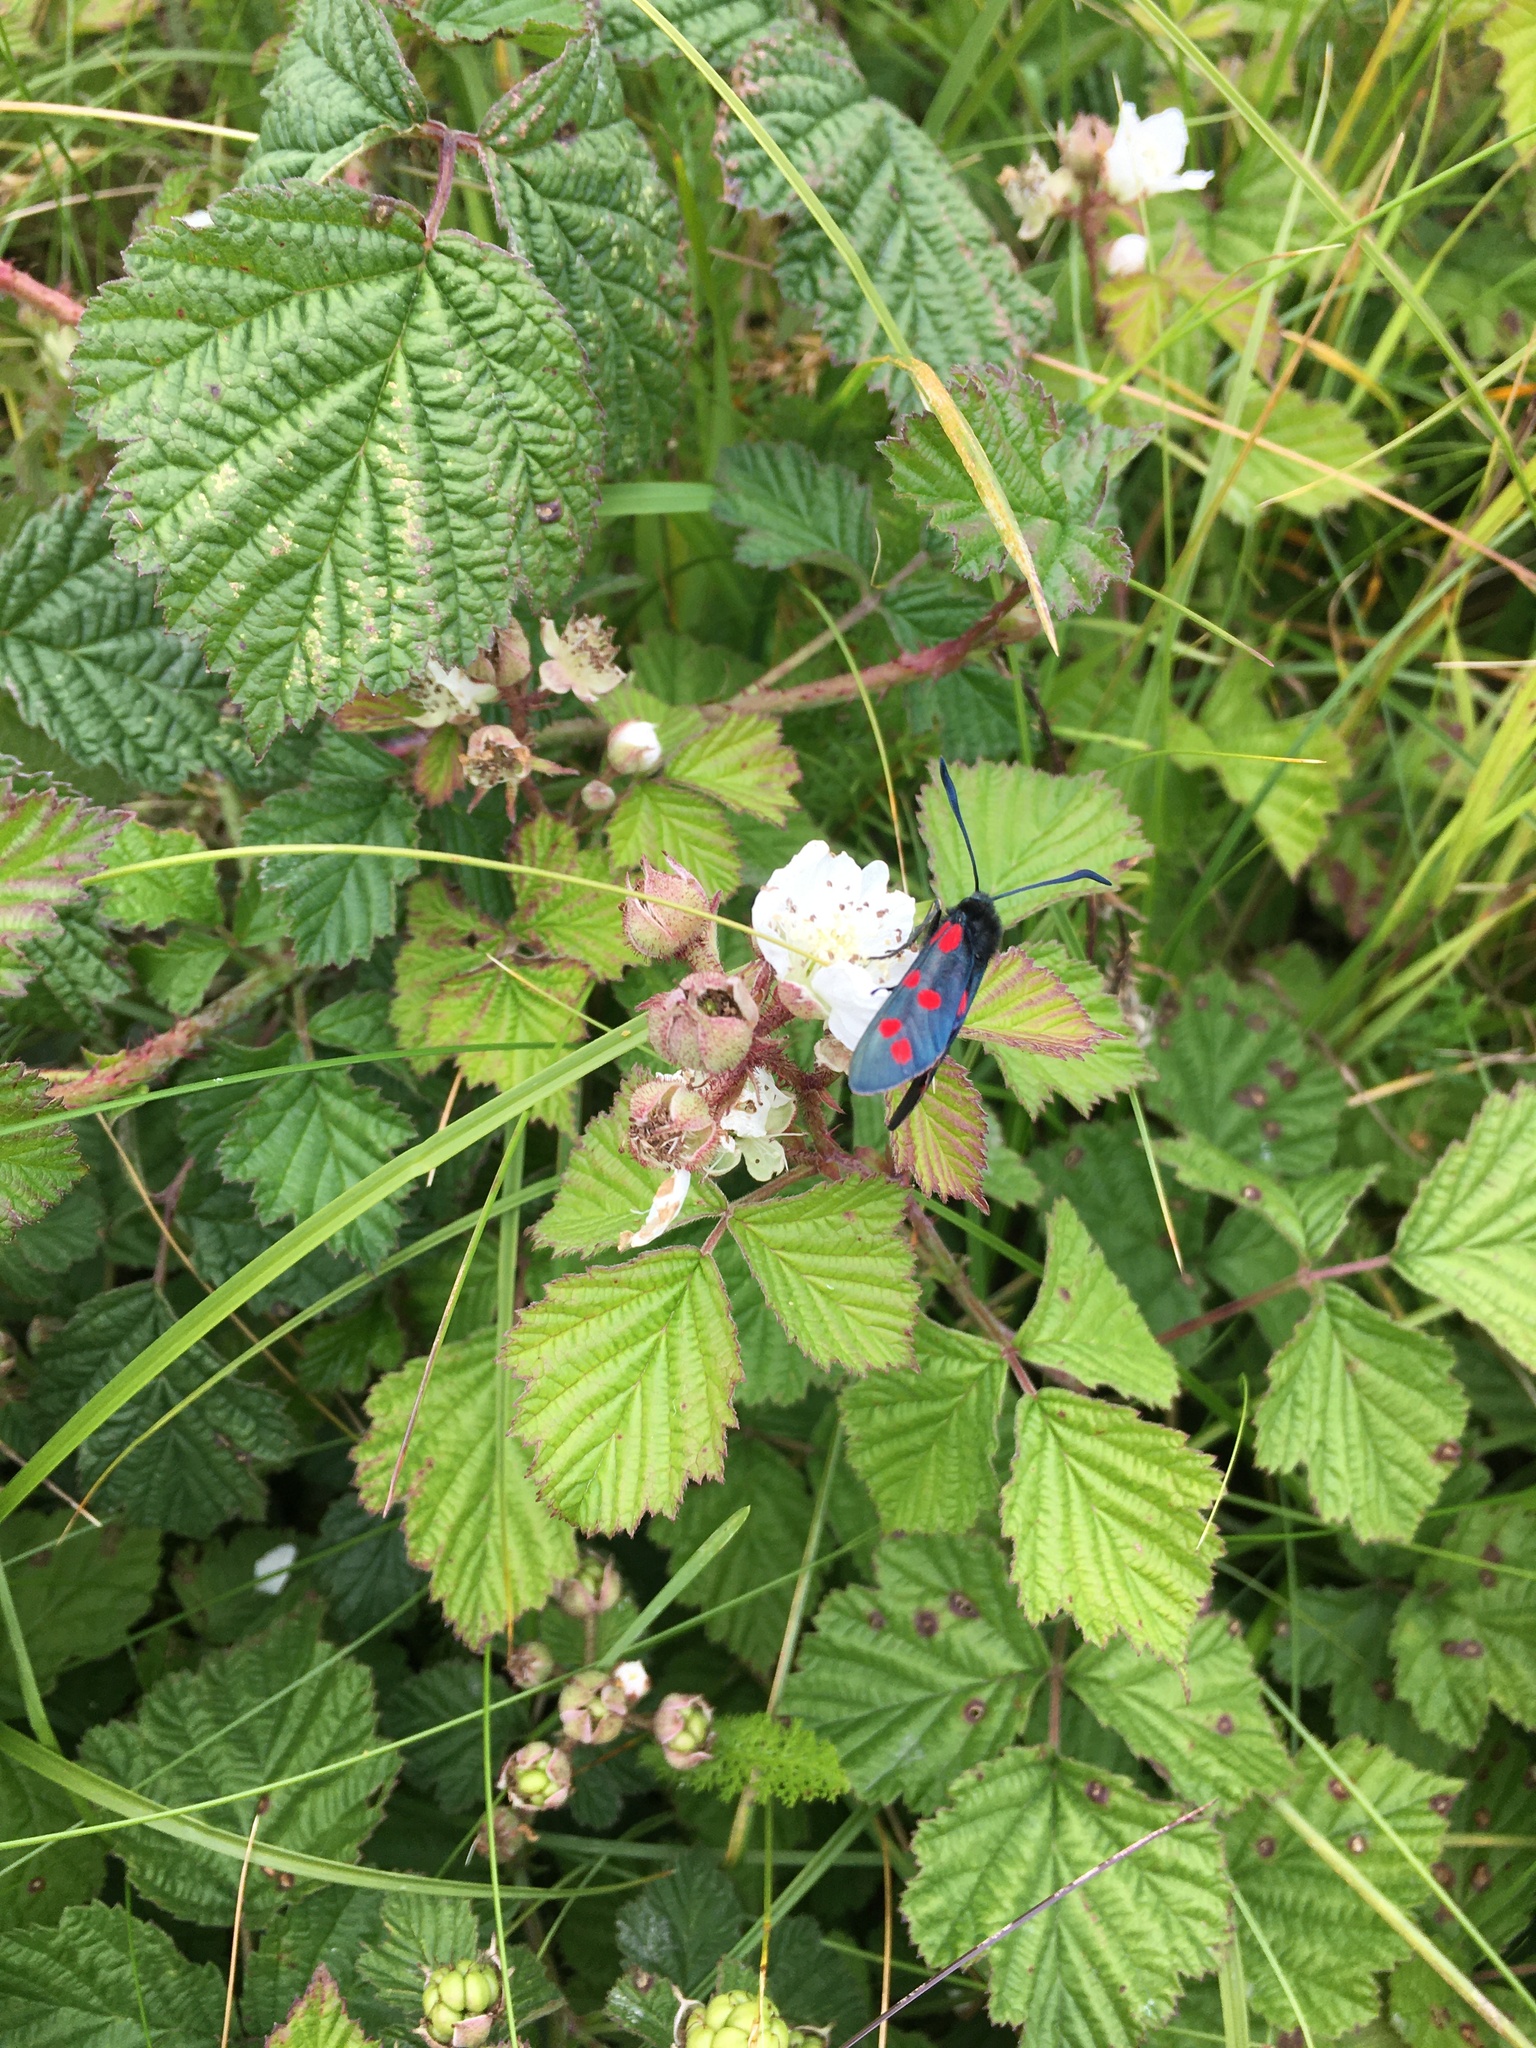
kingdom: Animalia
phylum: Arthropoda
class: Insecta
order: Lepidoptera
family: Zygaenidae
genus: Zygaena
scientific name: Zygaena filipendulae
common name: Six-spot burnet
